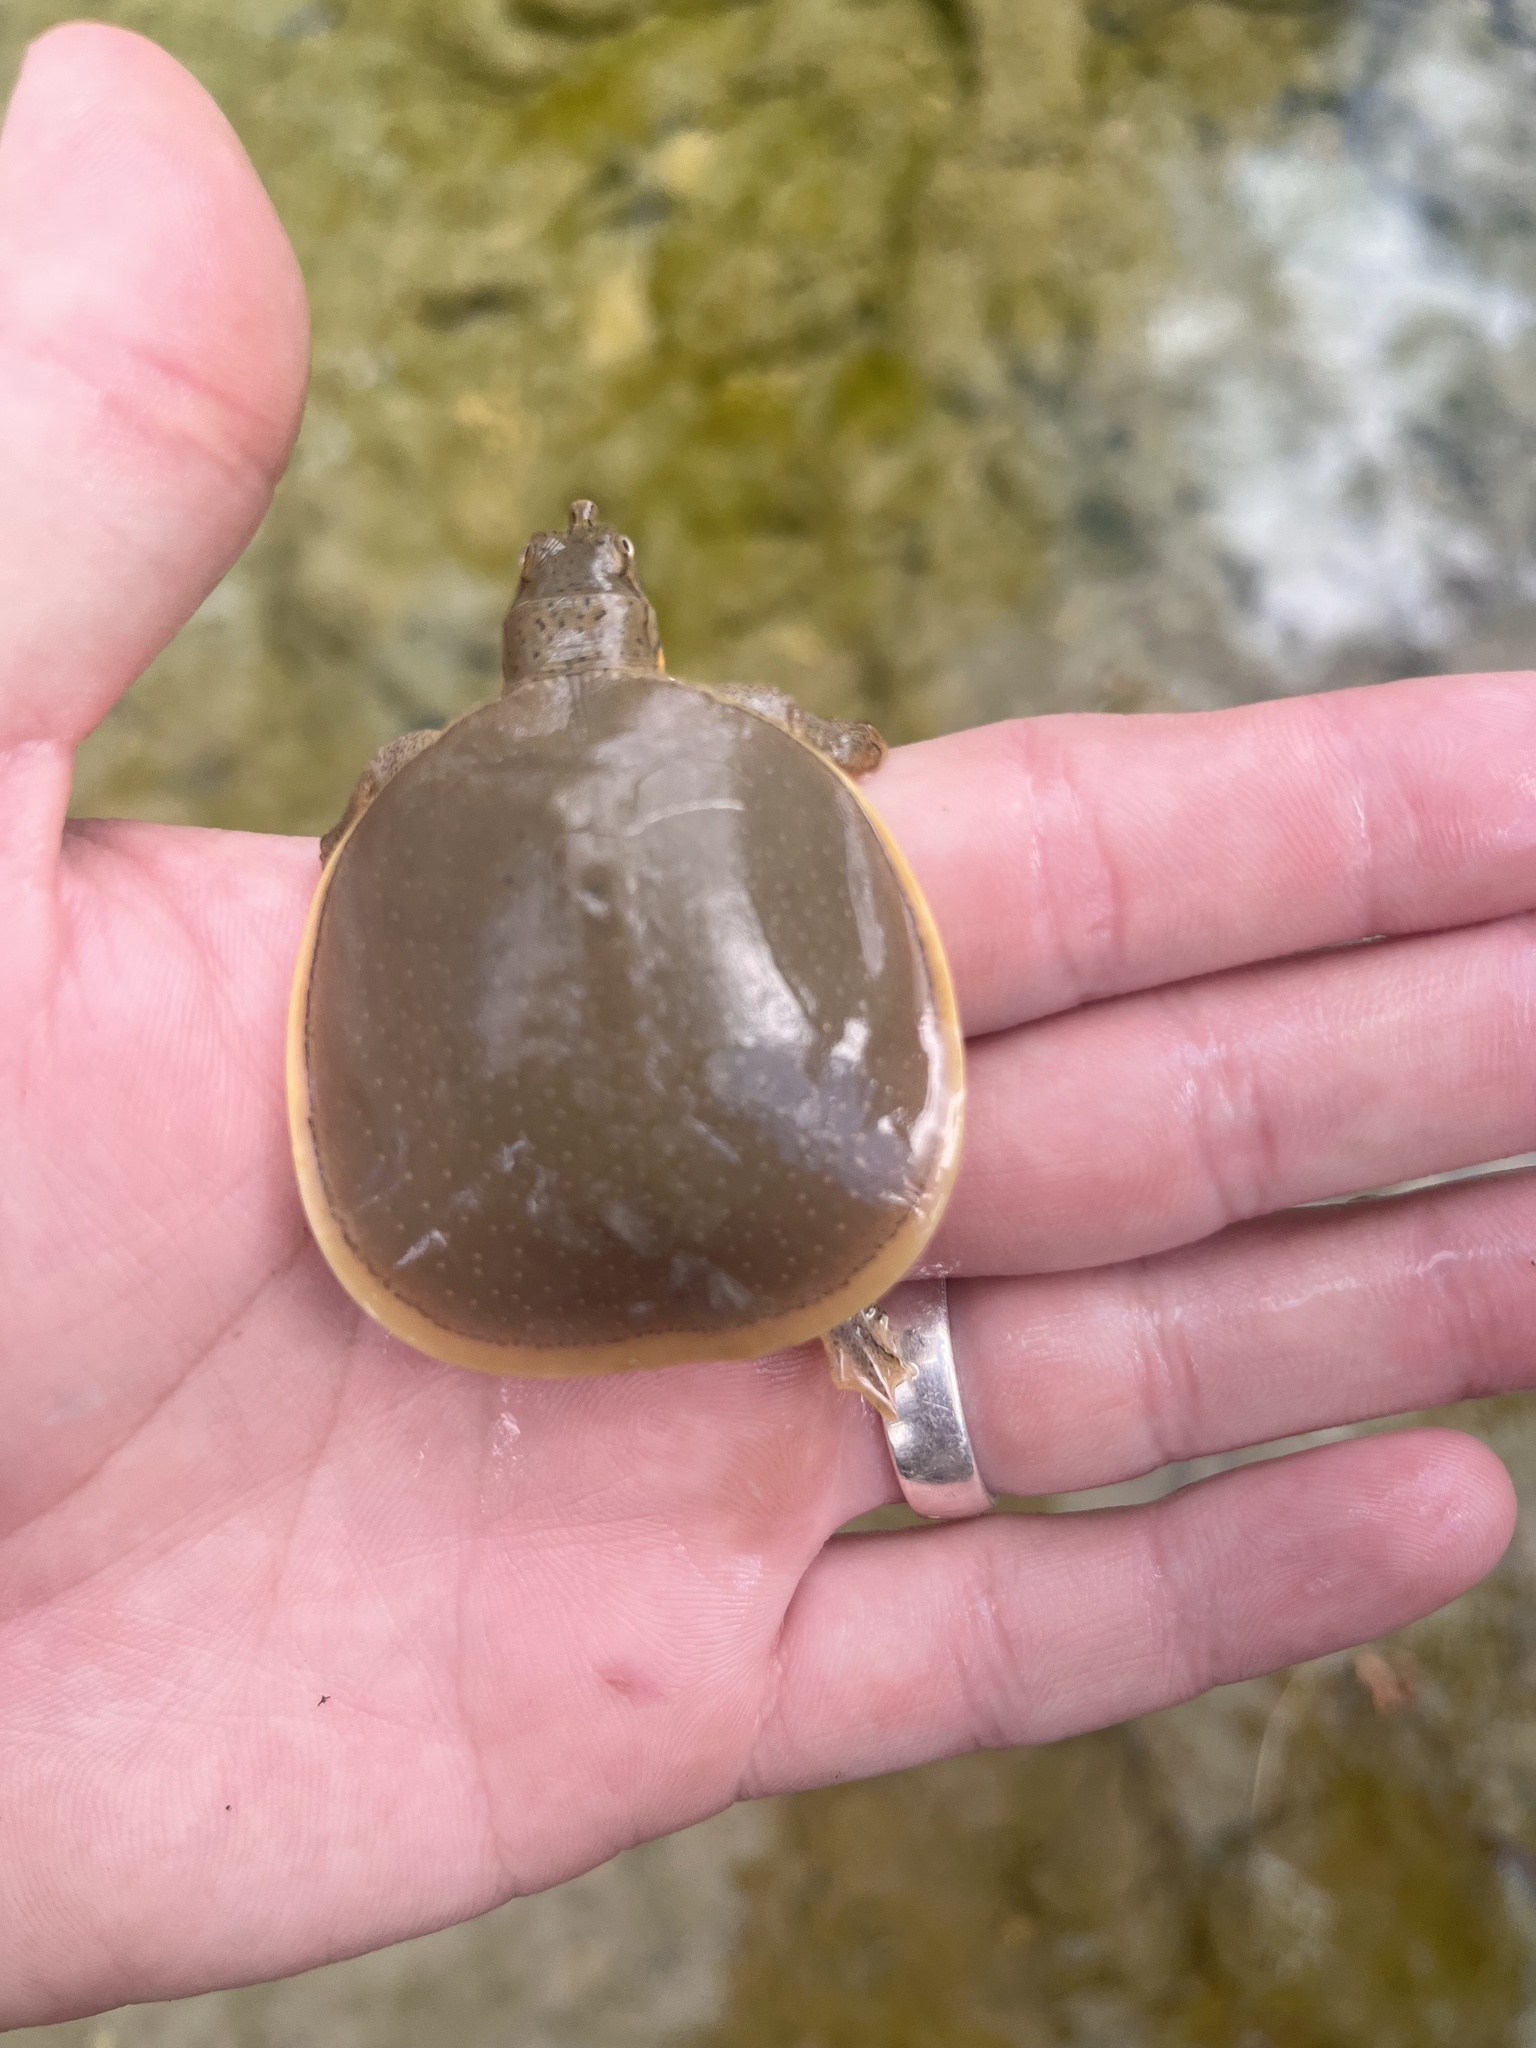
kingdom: Animalia
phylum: Chordata
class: Testudines
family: Trionychidae
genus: Apalone
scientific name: Apalone spinifera
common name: Spiny softshell turtle
